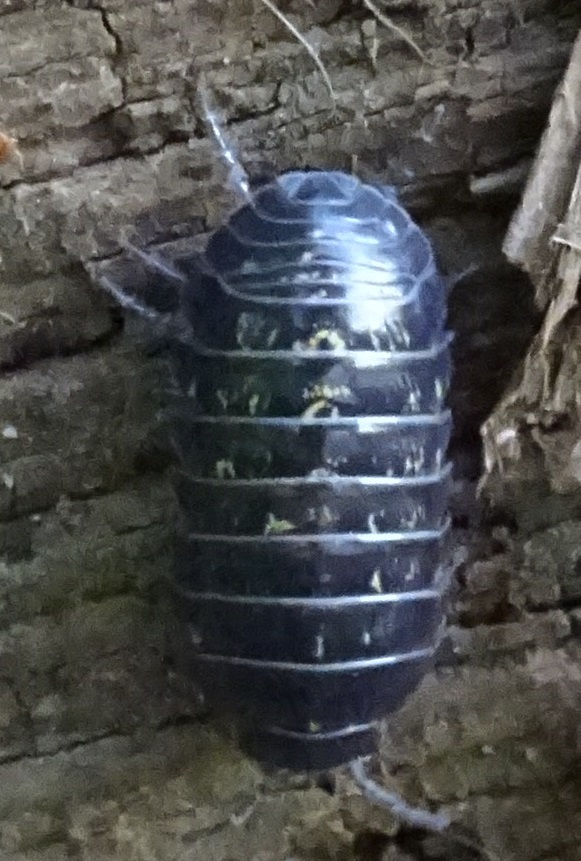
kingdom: Animalia
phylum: Arthropoda
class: Malacostraca
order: Isopoda
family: Armadillidiidae
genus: Armadillidium
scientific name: Armadillidium vulgare
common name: Common pill woodlouse
